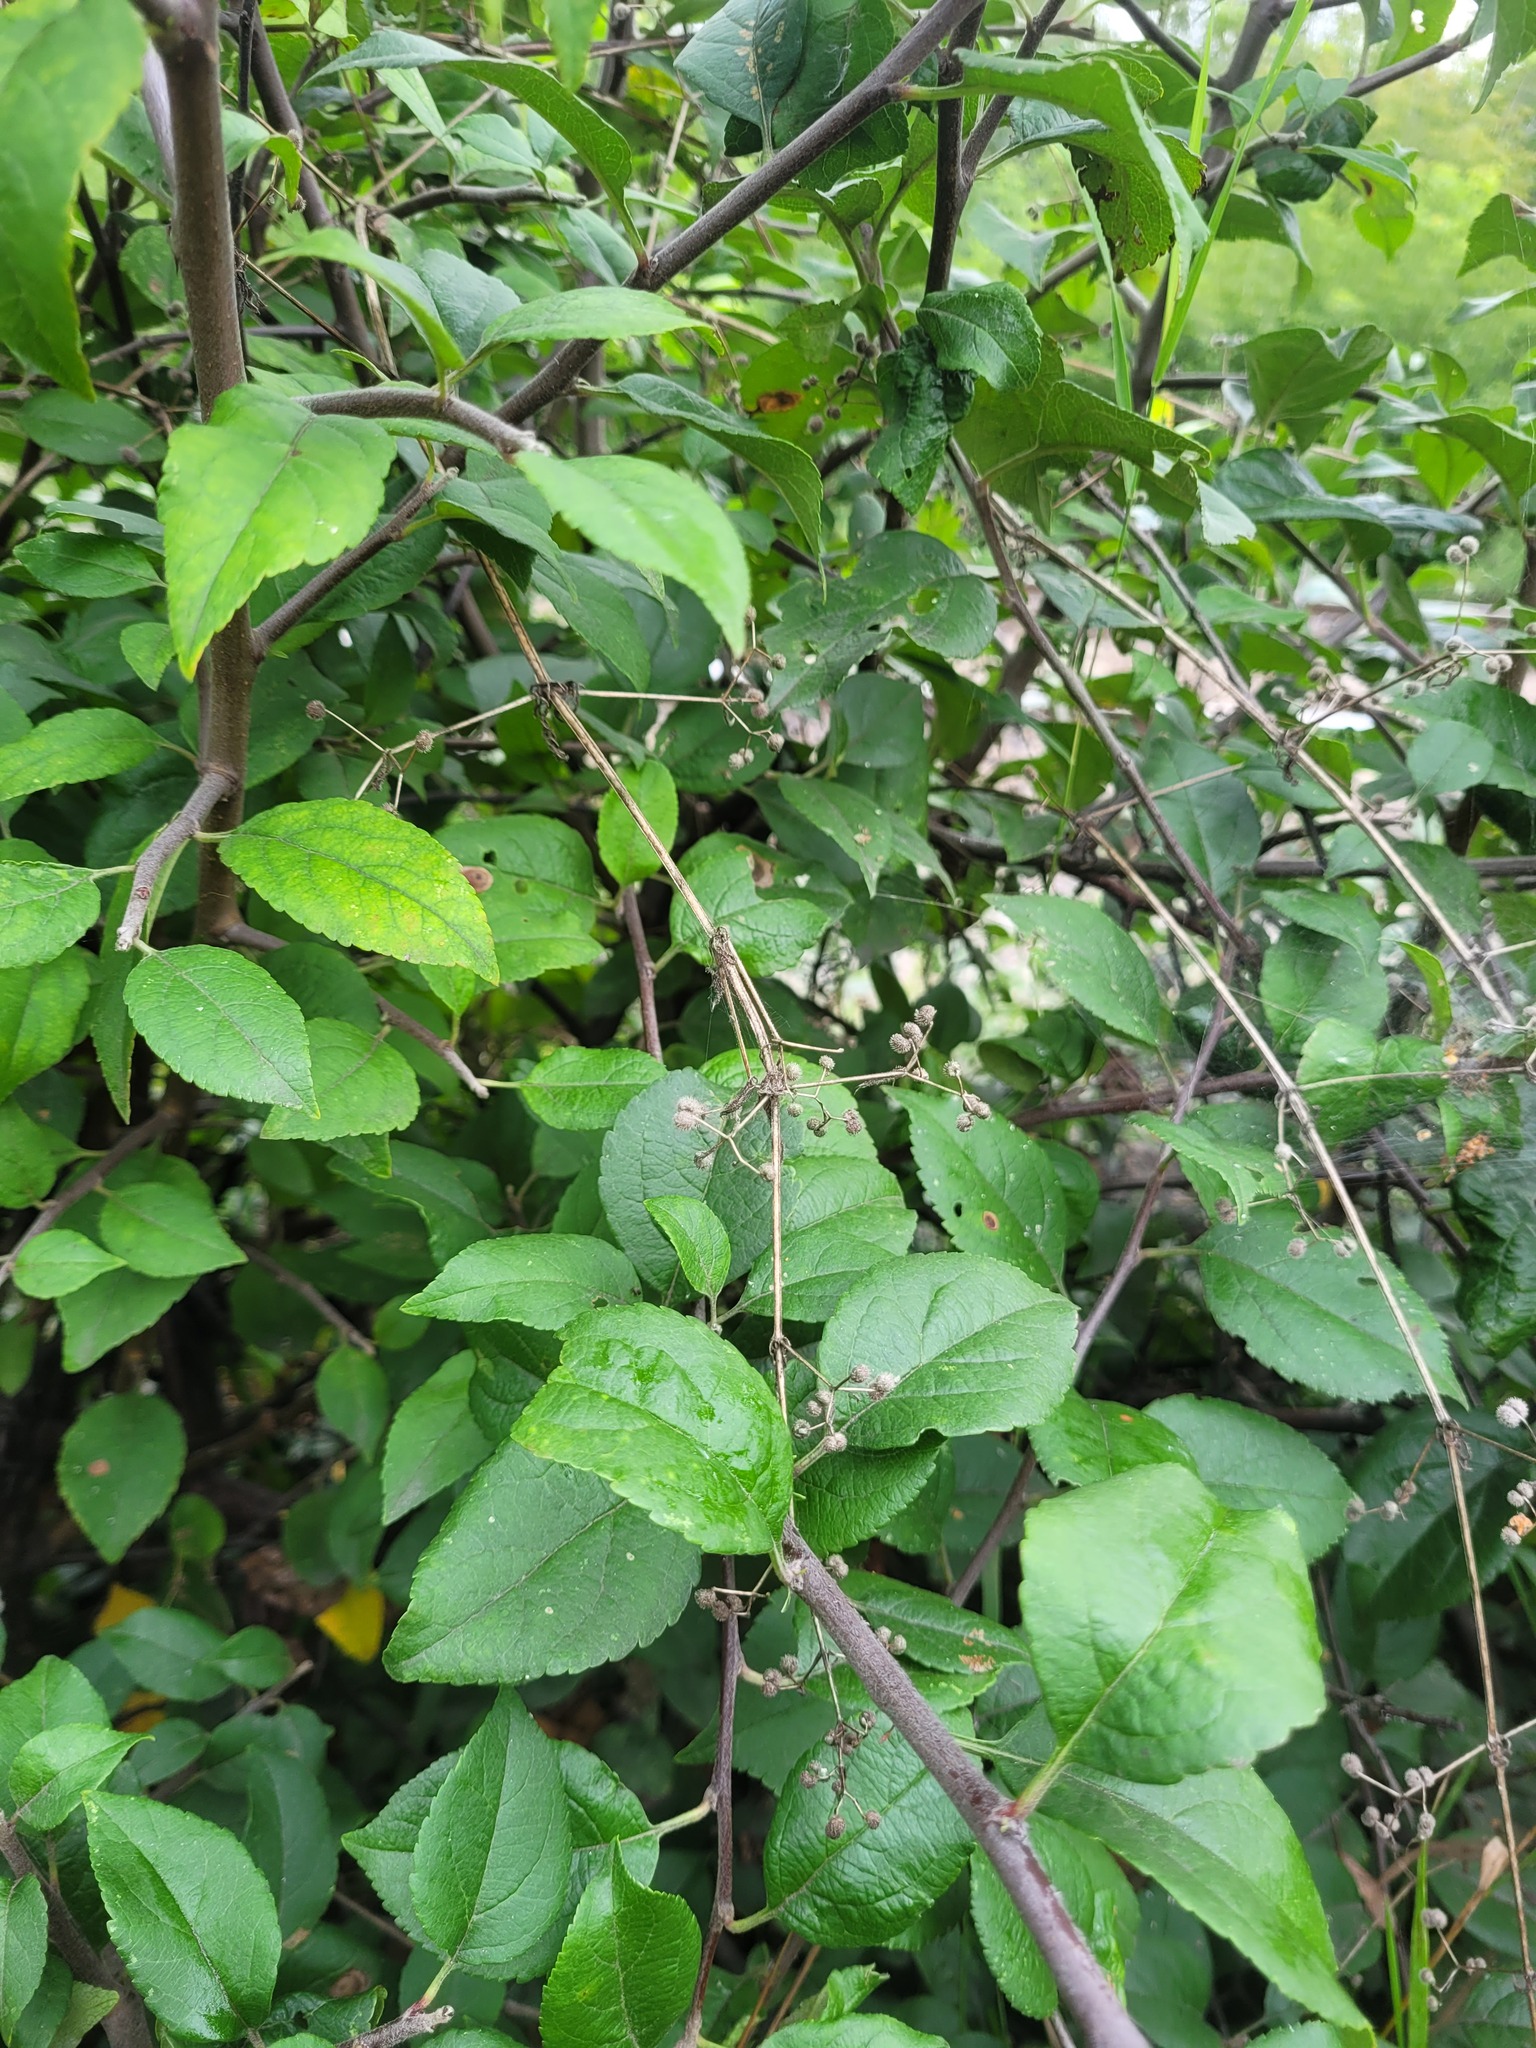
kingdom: Plantae
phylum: Tracheophyta
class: Magnoliopsida
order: Gentianales
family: Rubiaceae
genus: Galium
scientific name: Galium aparine
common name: Cleavers
